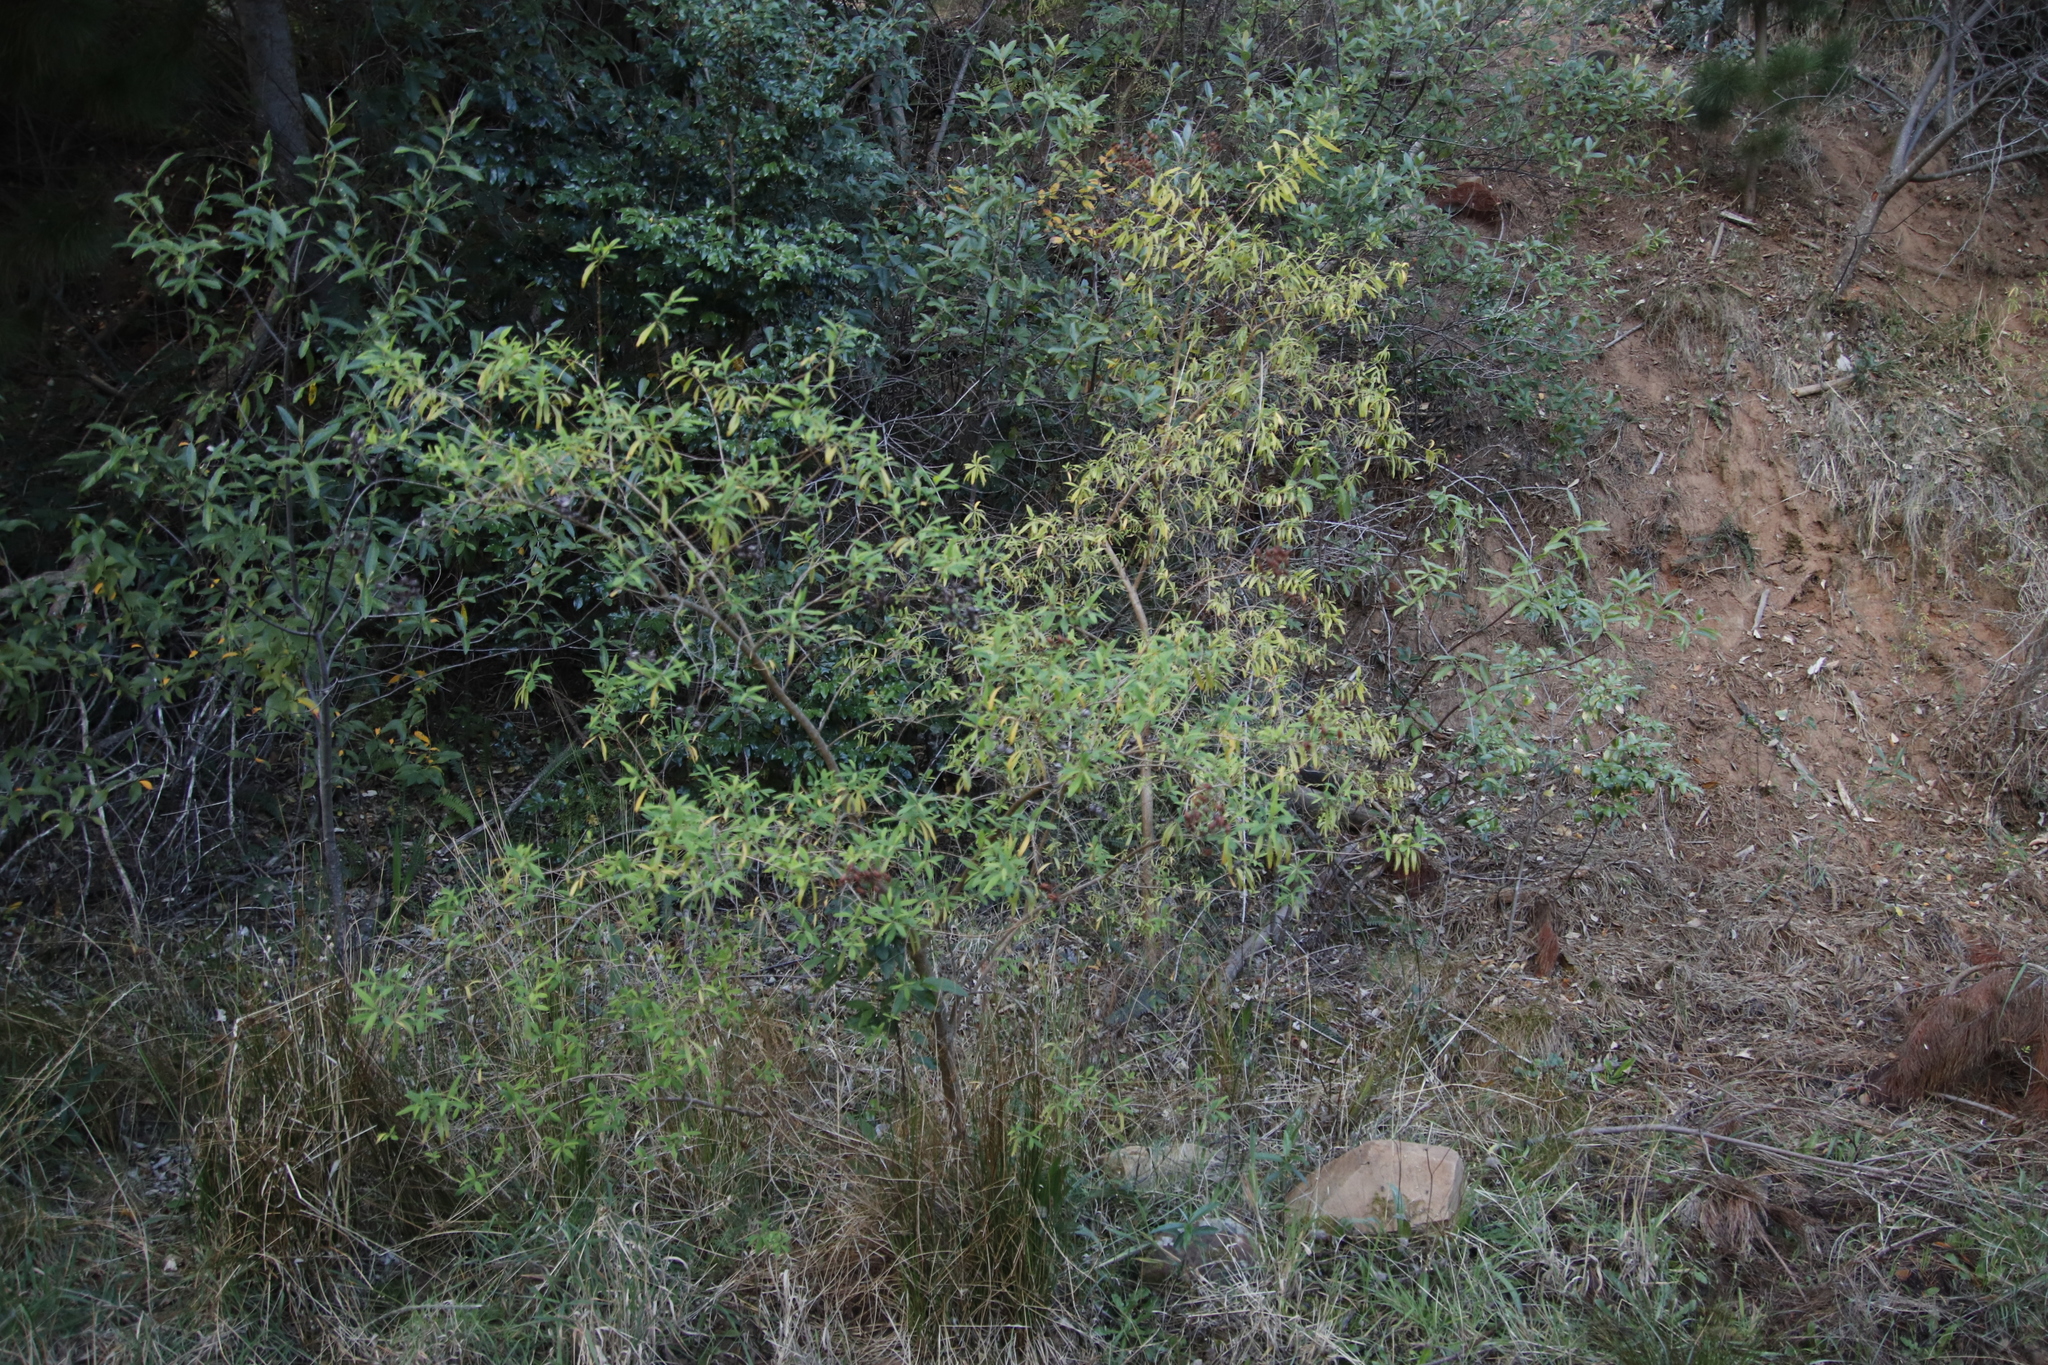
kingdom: Plantae
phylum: Tracheophyta
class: Magnoliopsida
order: Malpighiales
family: Hypericaceae
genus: Hypericum
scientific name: Hypericum canariense
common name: Canary island st. johnswort
